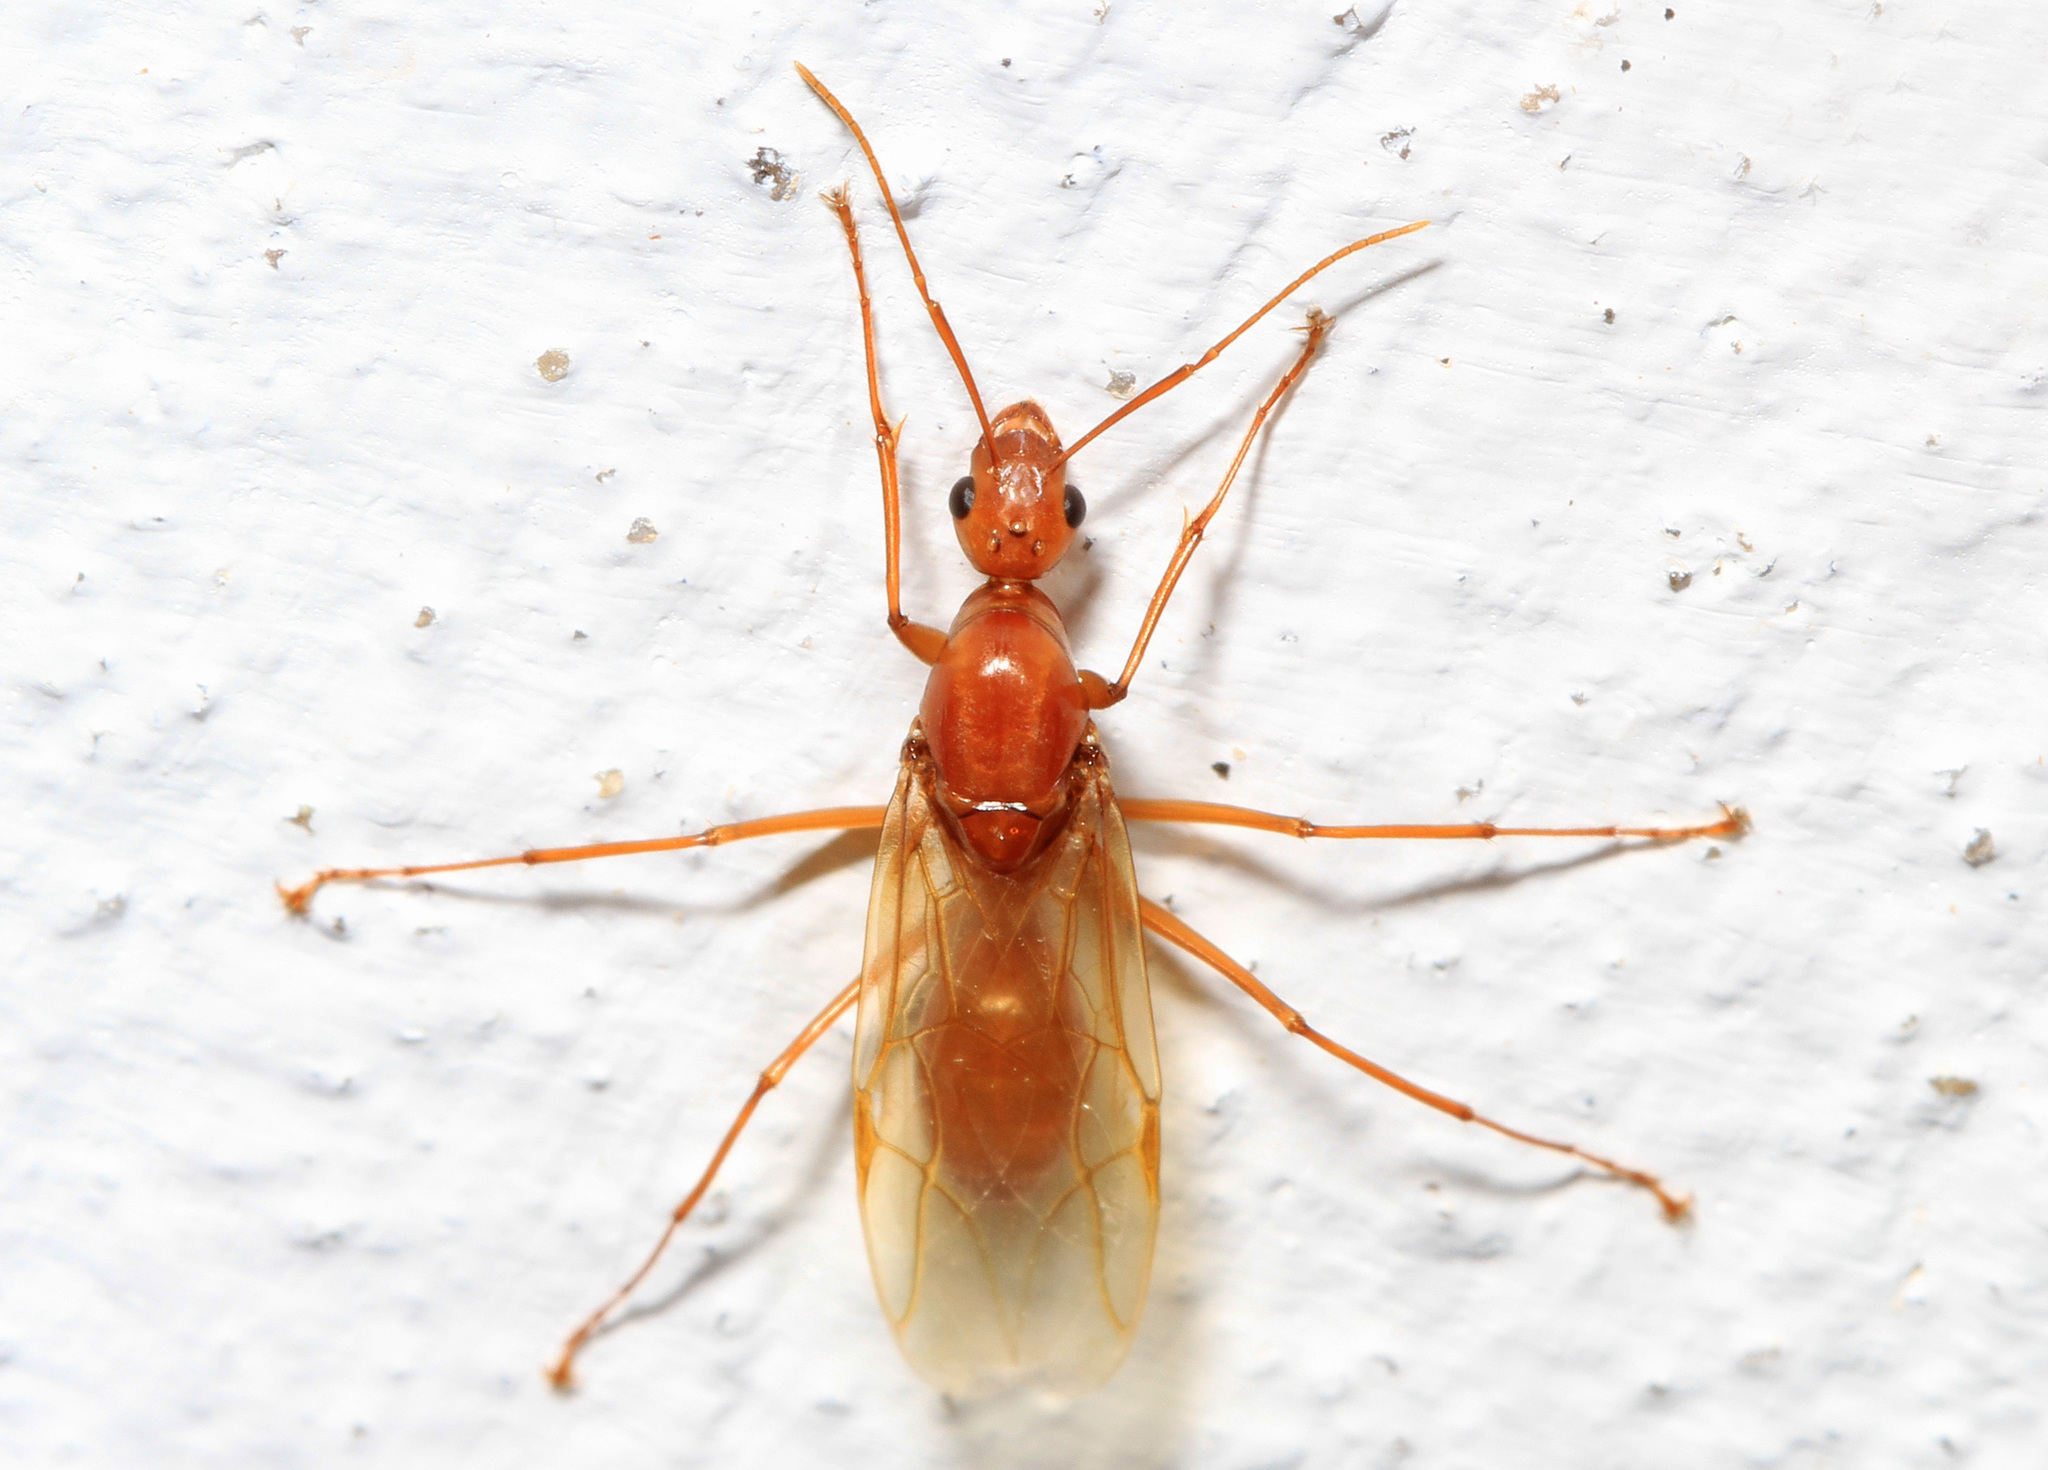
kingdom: Animalia
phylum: Arthropoda
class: Insecta
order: Hymenoptera
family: Formicidae
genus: Camponotus
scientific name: Camponotus castaneus
